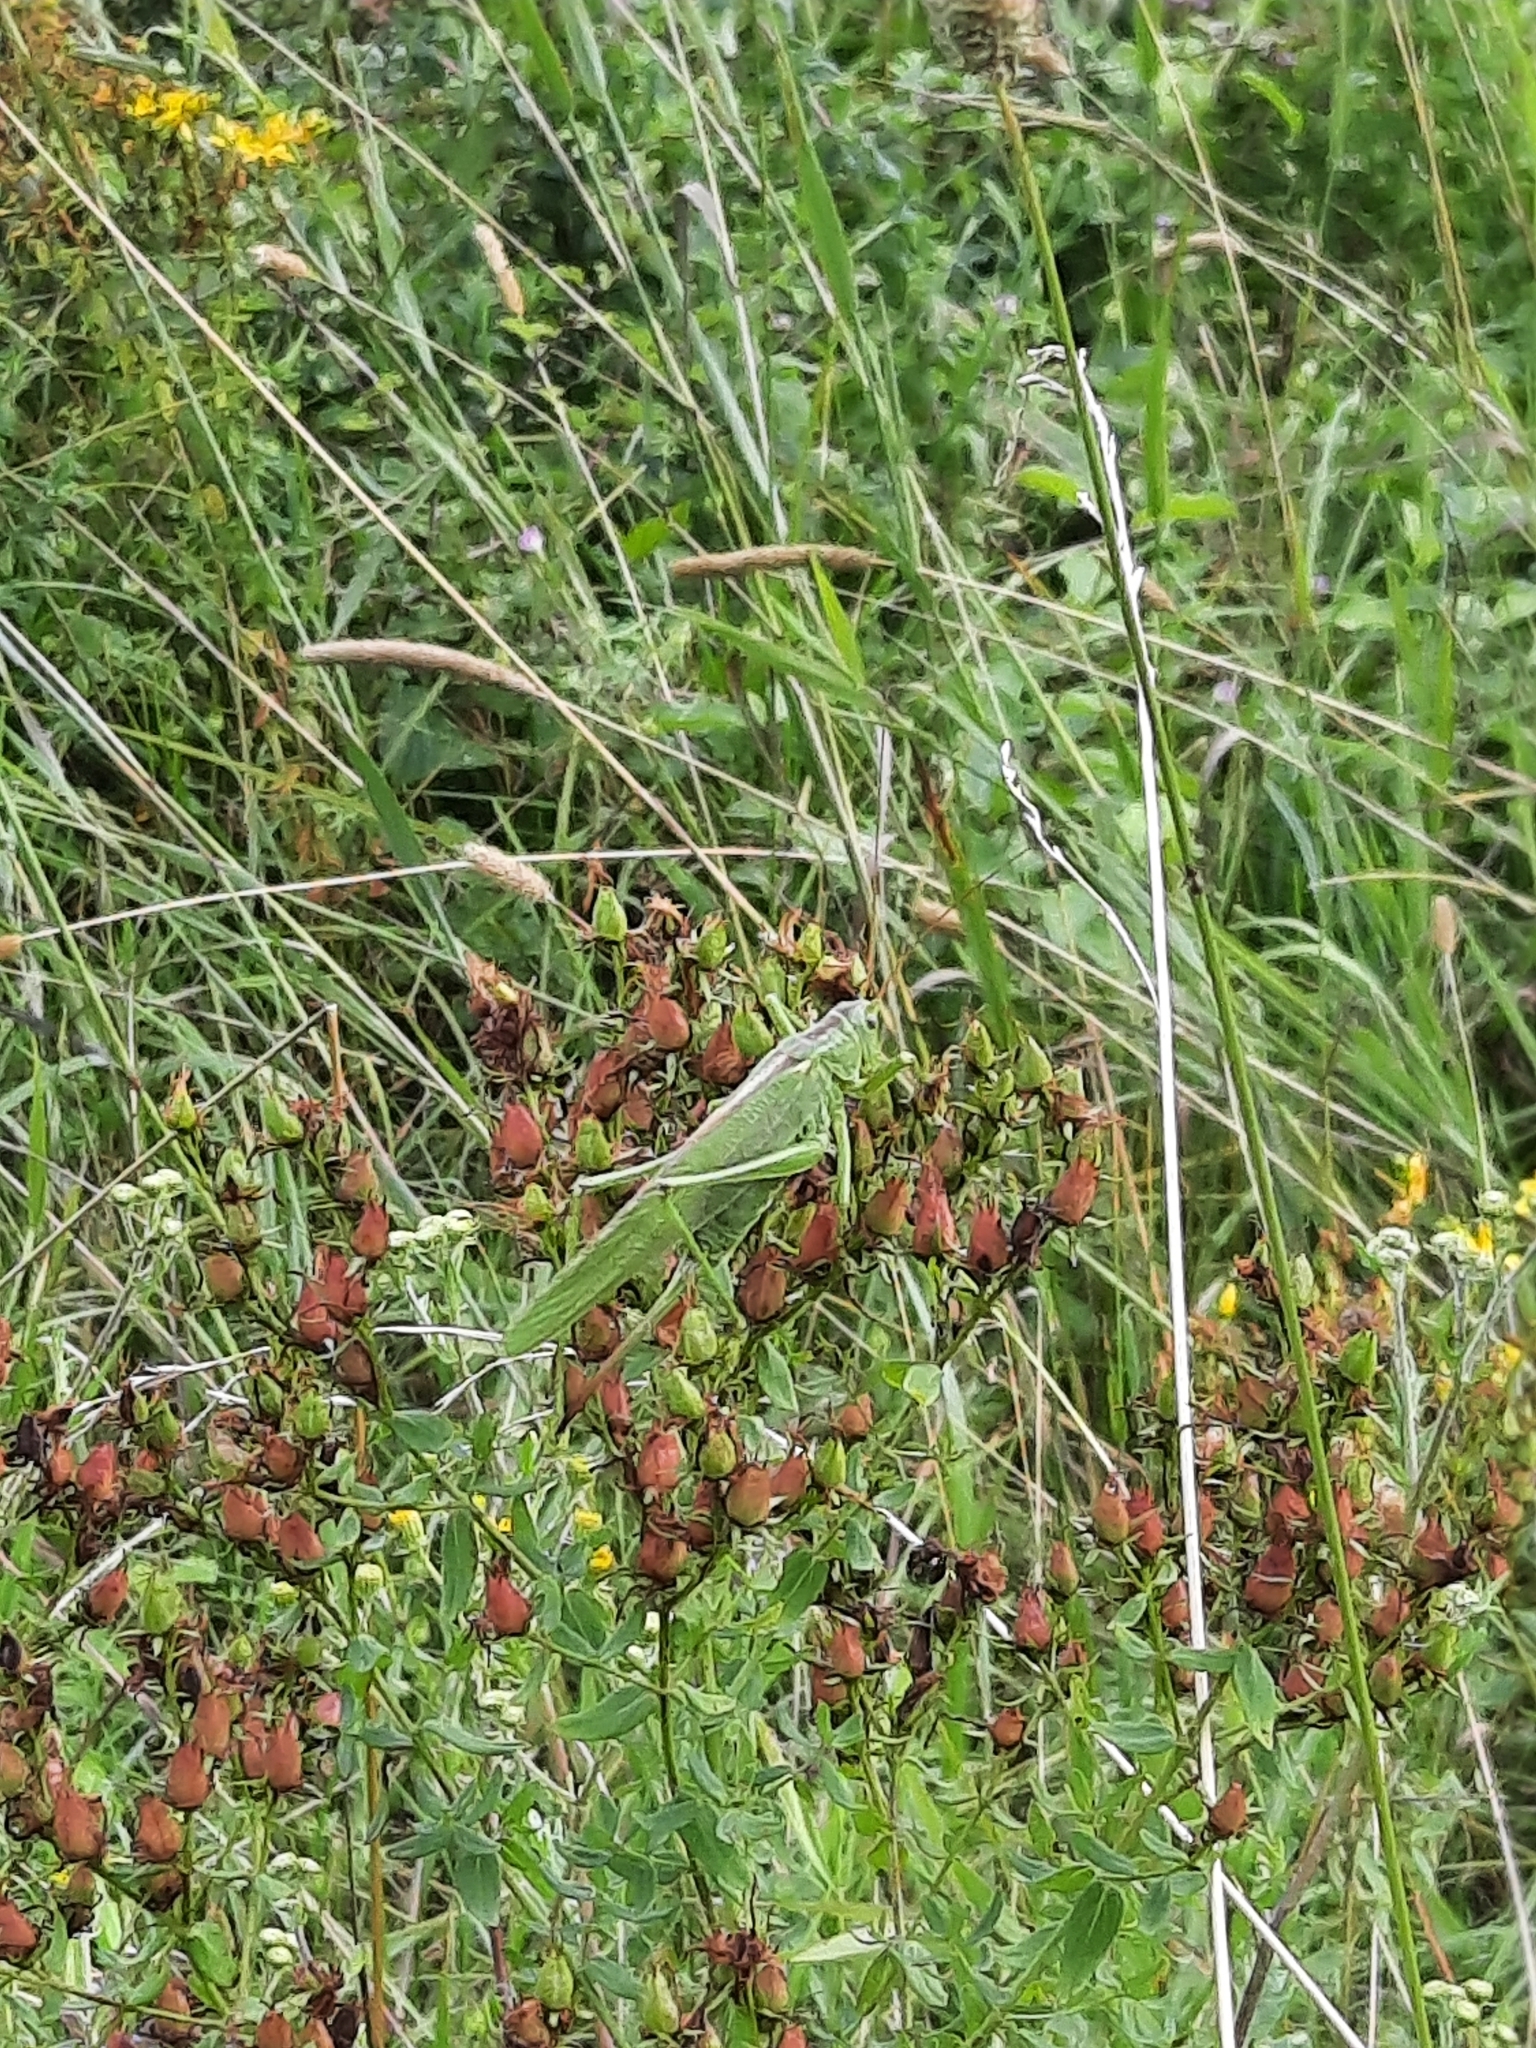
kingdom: Animalia
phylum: Arthropoda
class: Insecta
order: Orthoptera
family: Tettigoniidae
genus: Tettigonia
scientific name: Tettigonia viridissima
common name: Great green bush-cricket
